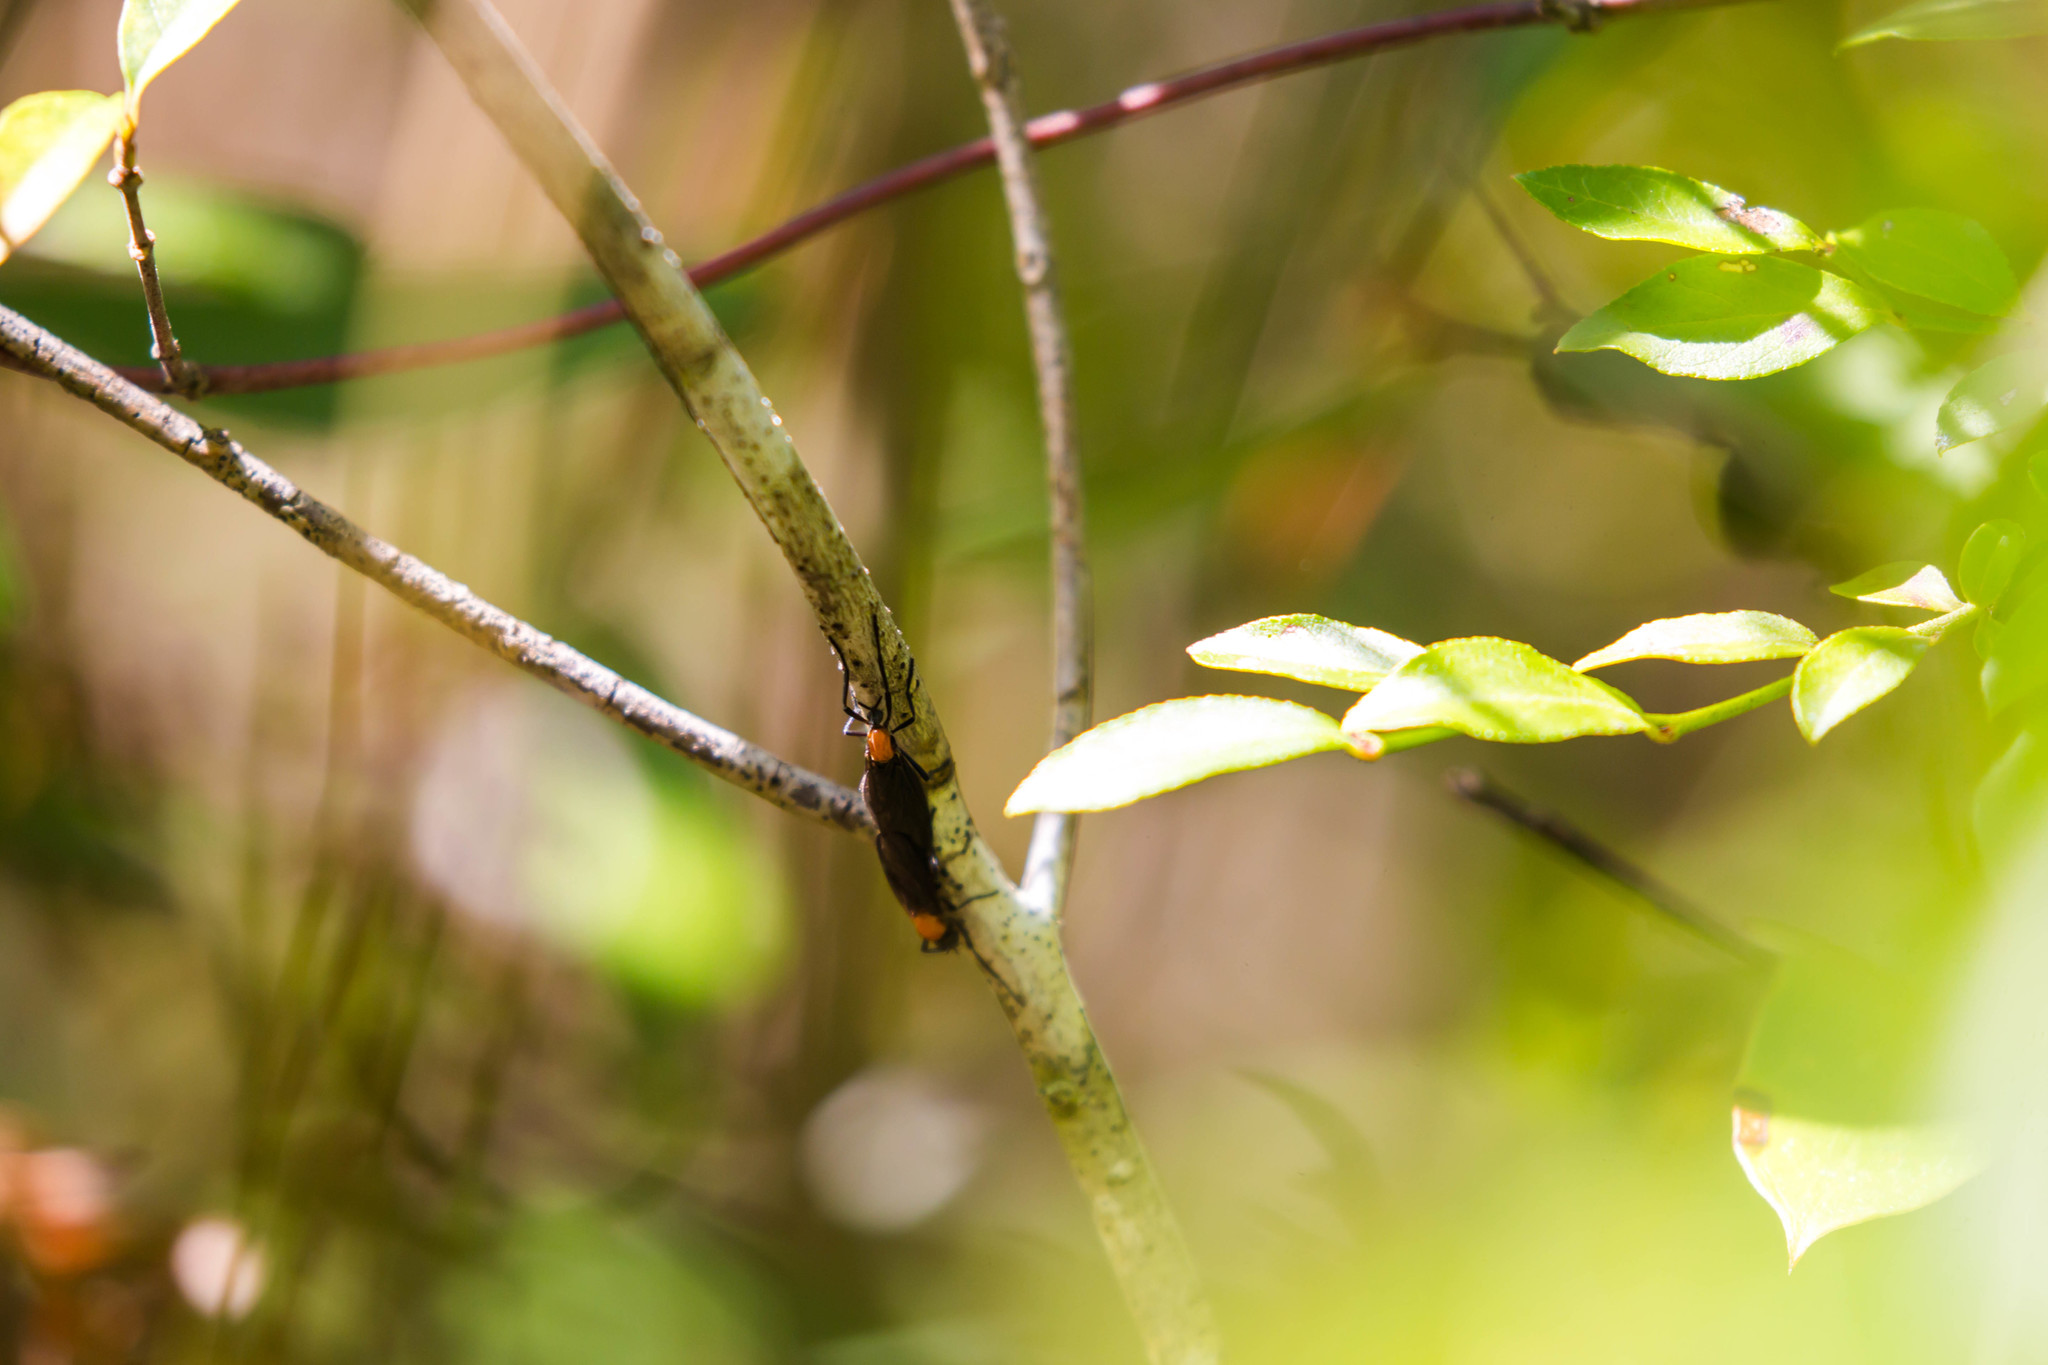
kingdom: Animalia
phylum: Arthropoda
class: Insecta
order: Diptera
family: Bibionidae
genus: Plecia
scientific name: Plecia nearctica
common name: March fly
